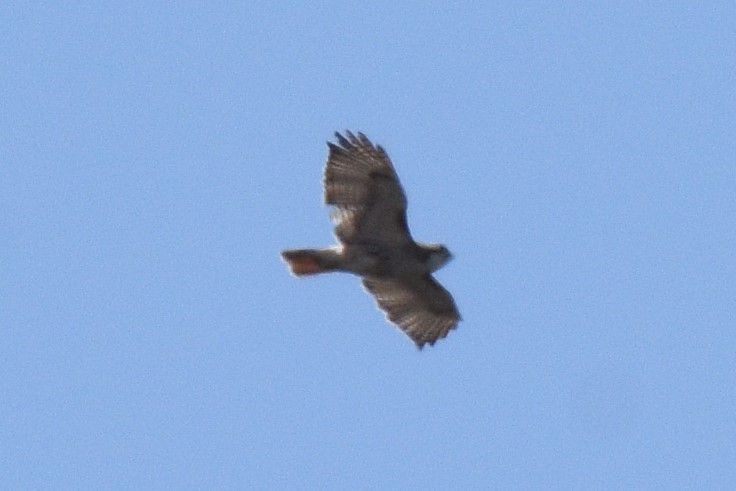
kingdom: Animalia
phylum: Chordata
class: Aves
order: Accipitriformes
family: Accipitridae
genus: Buteo
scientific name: Buteo jamaicensis
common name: Red-tailed hawk
